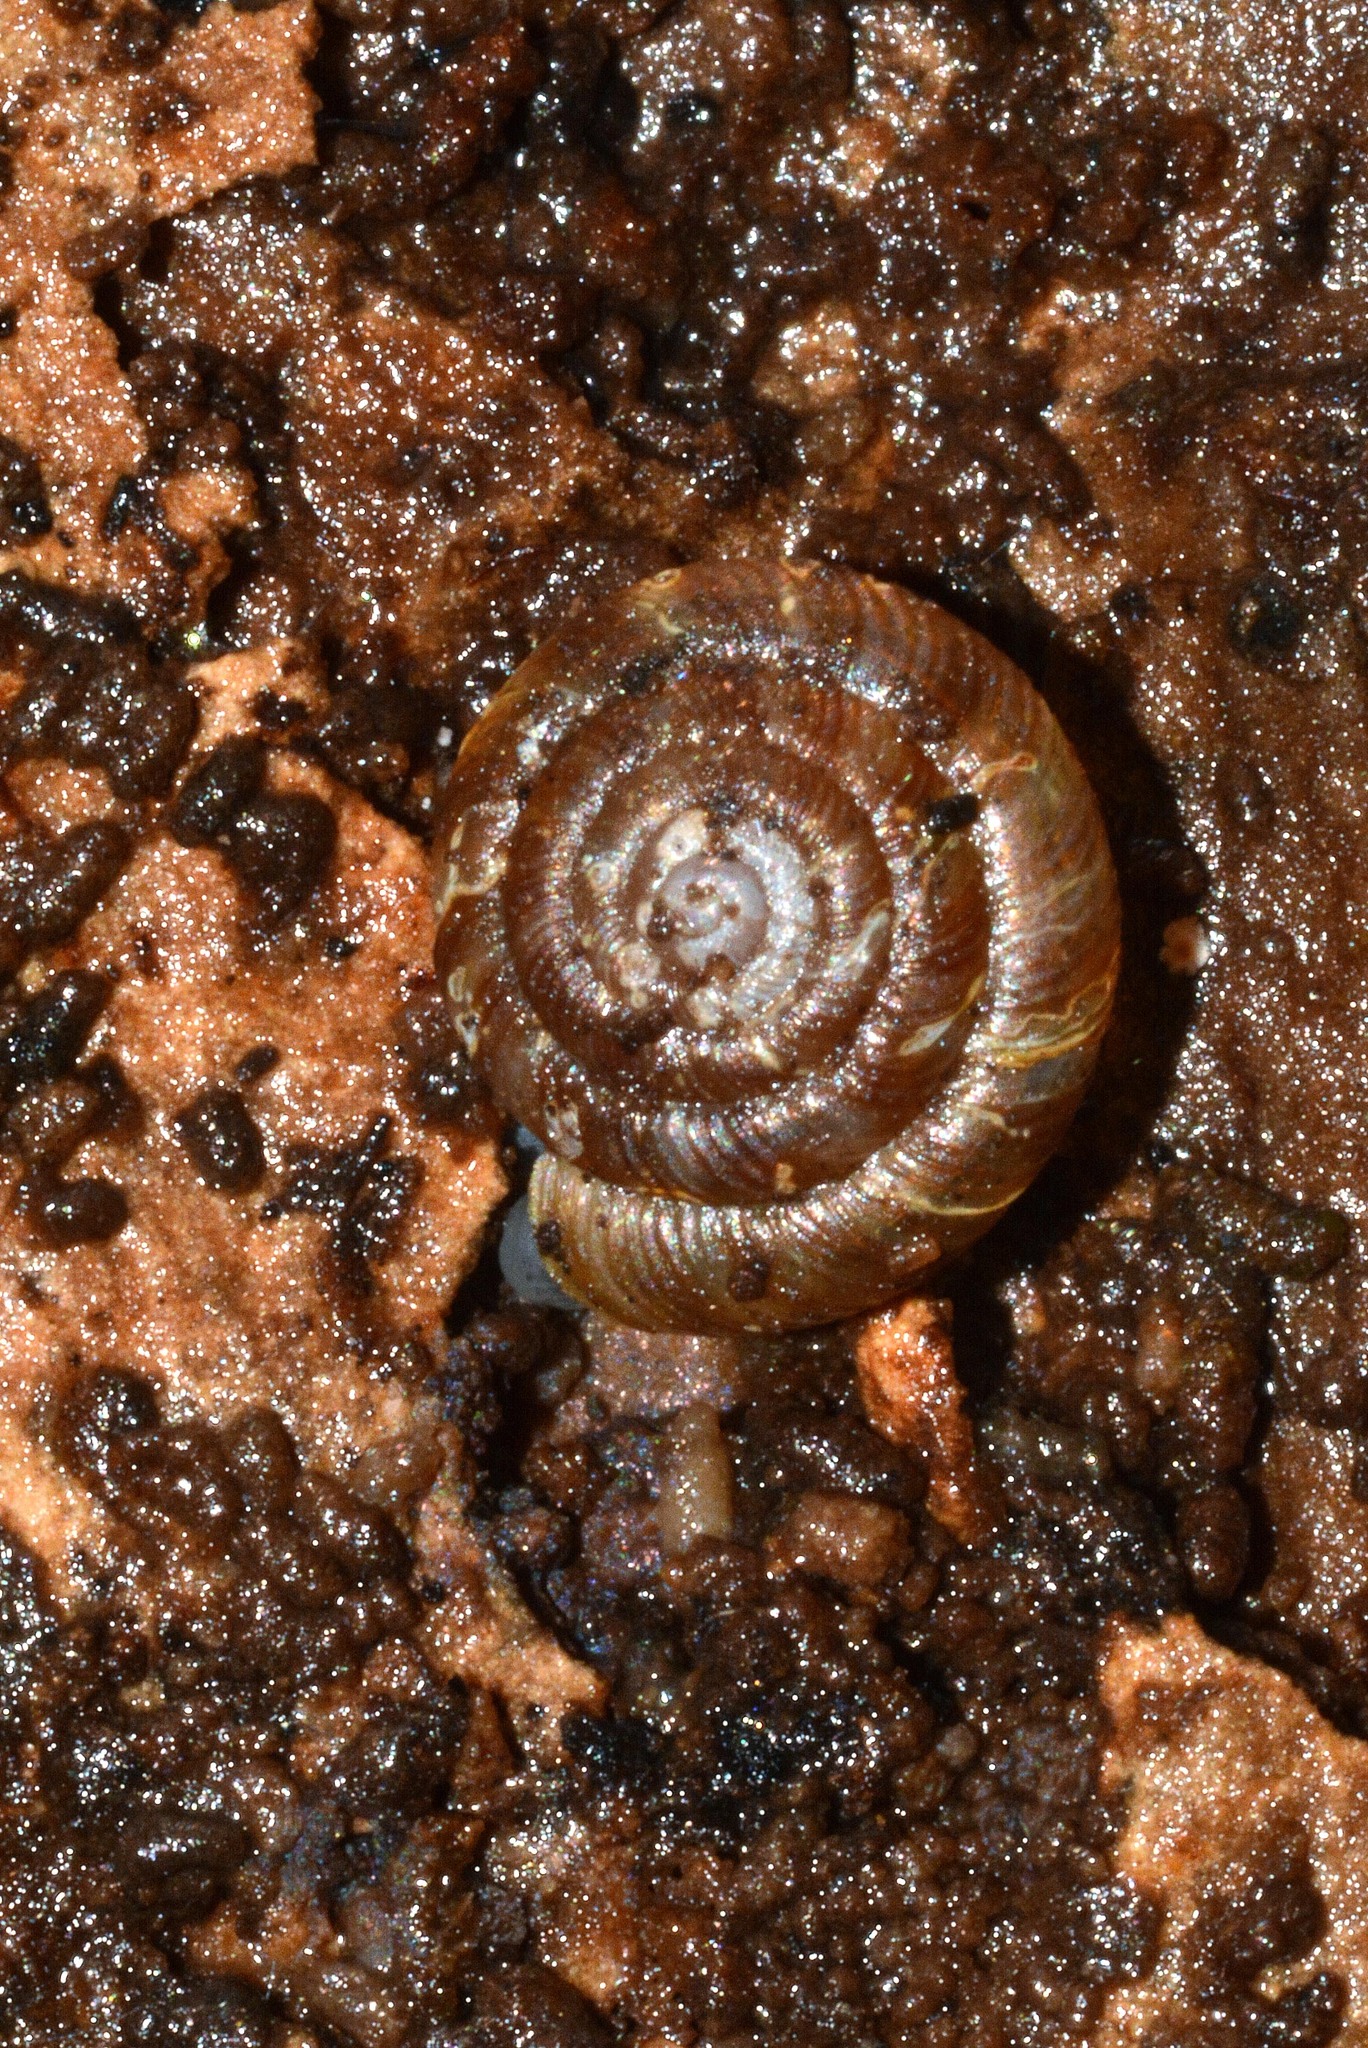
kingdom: Animalia
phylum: Mollusca
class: Gastropoda
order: Stylommatophora
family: Discidae
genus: Discus
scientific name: Discus rotundatus
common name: Rounded snail
